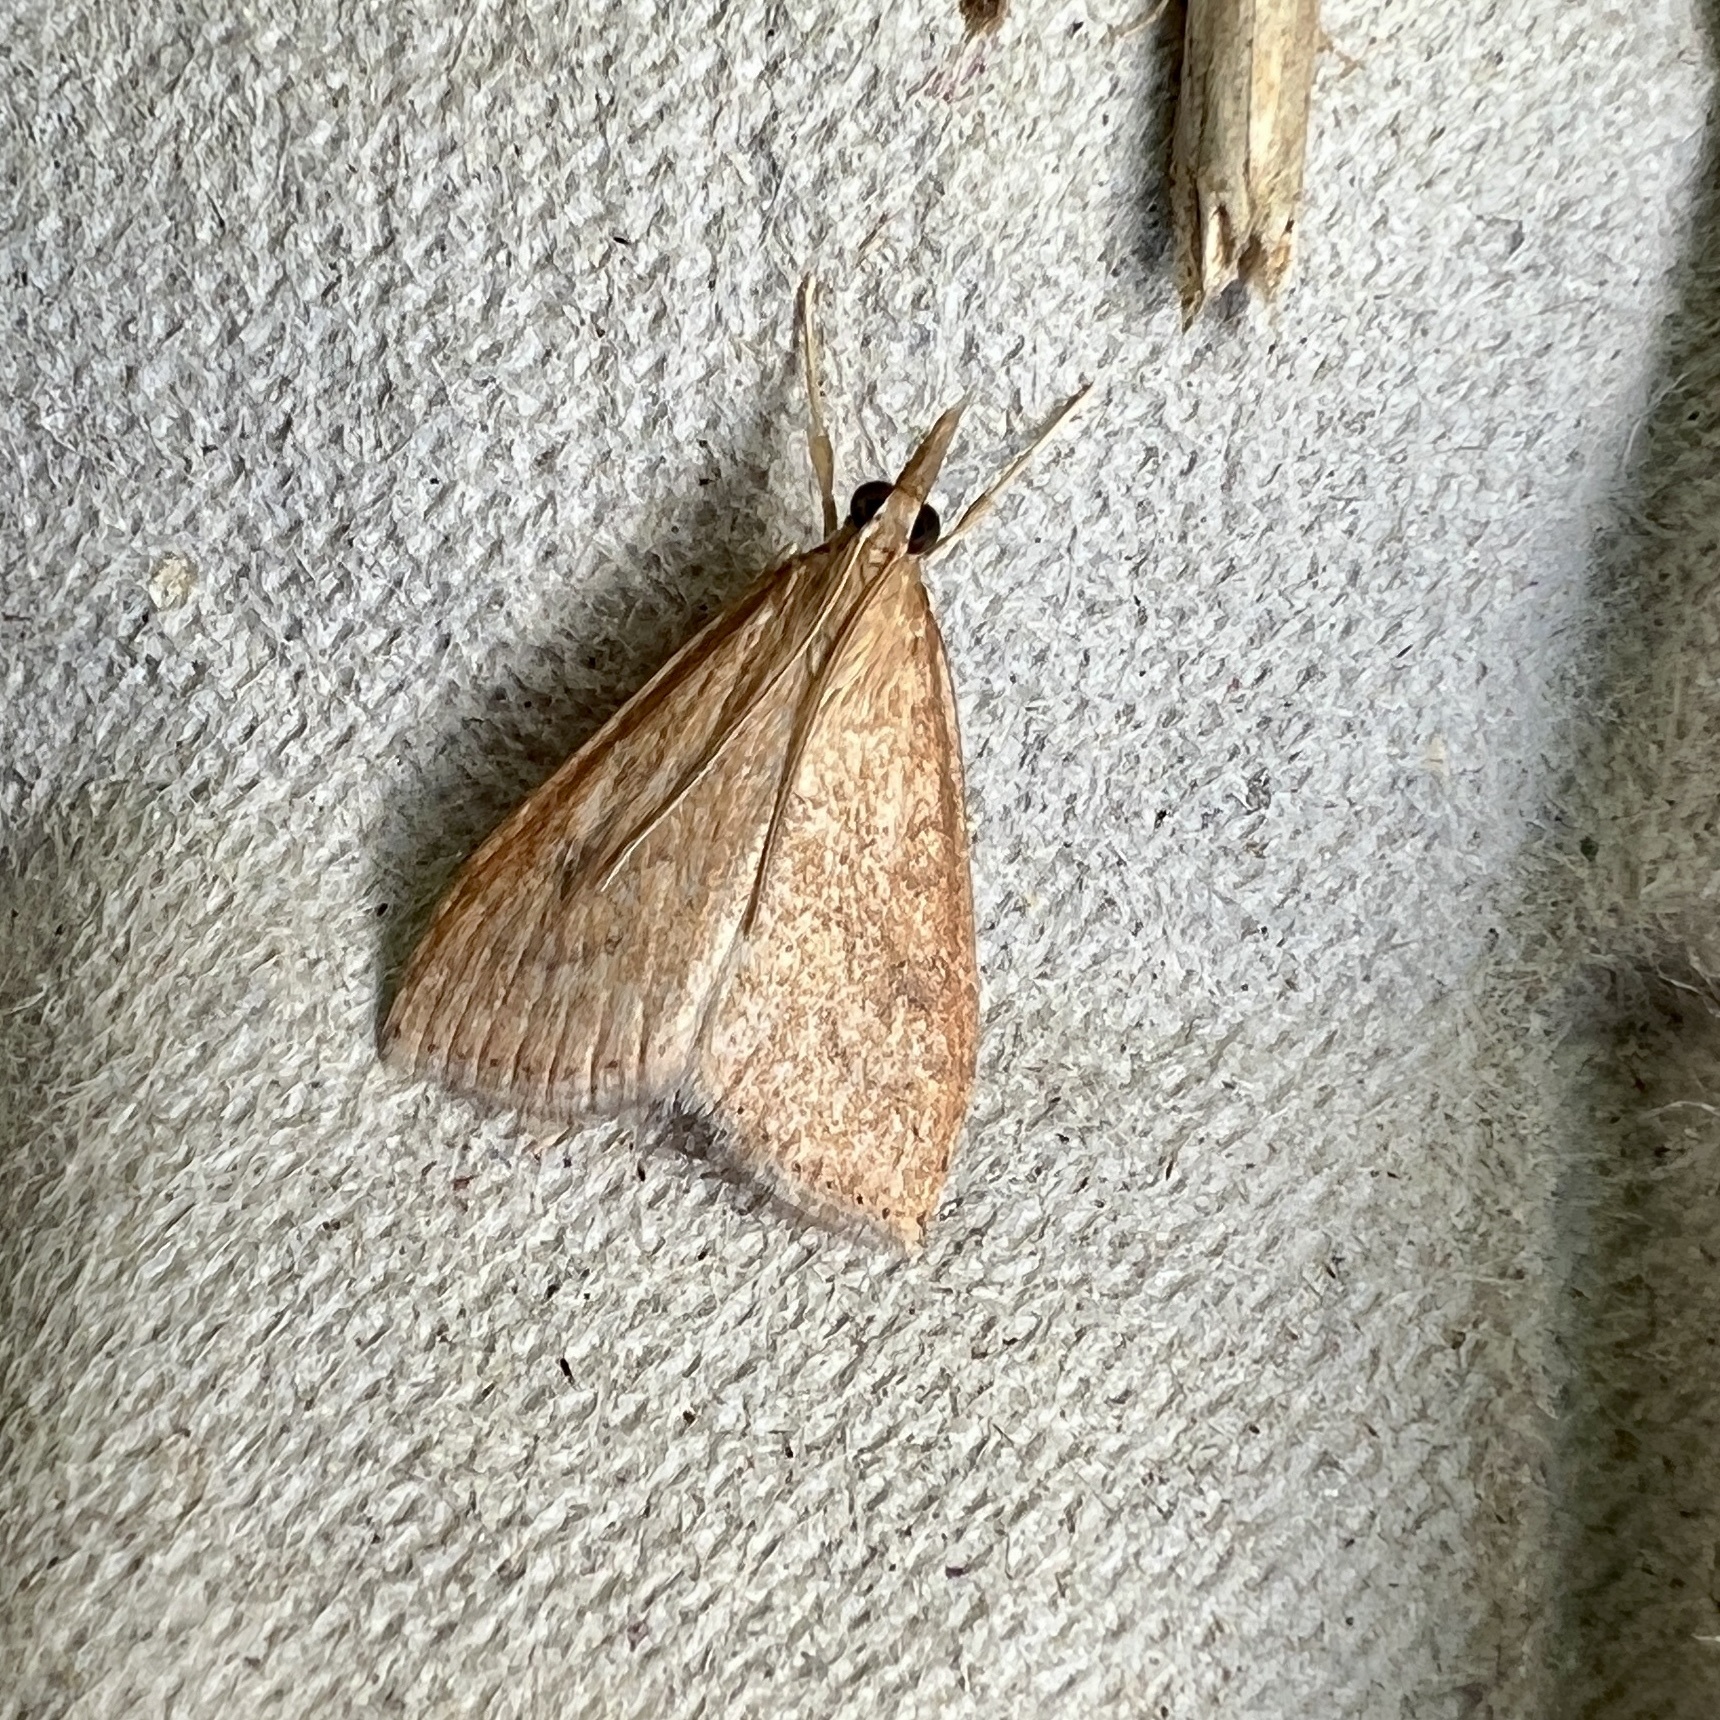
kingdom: Animalia
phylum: Arthropoda
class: Insecta
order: Lepidoptera
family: Crambidae
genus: Udea
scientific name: Udea rubigalis
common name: Celery leaftier moth
